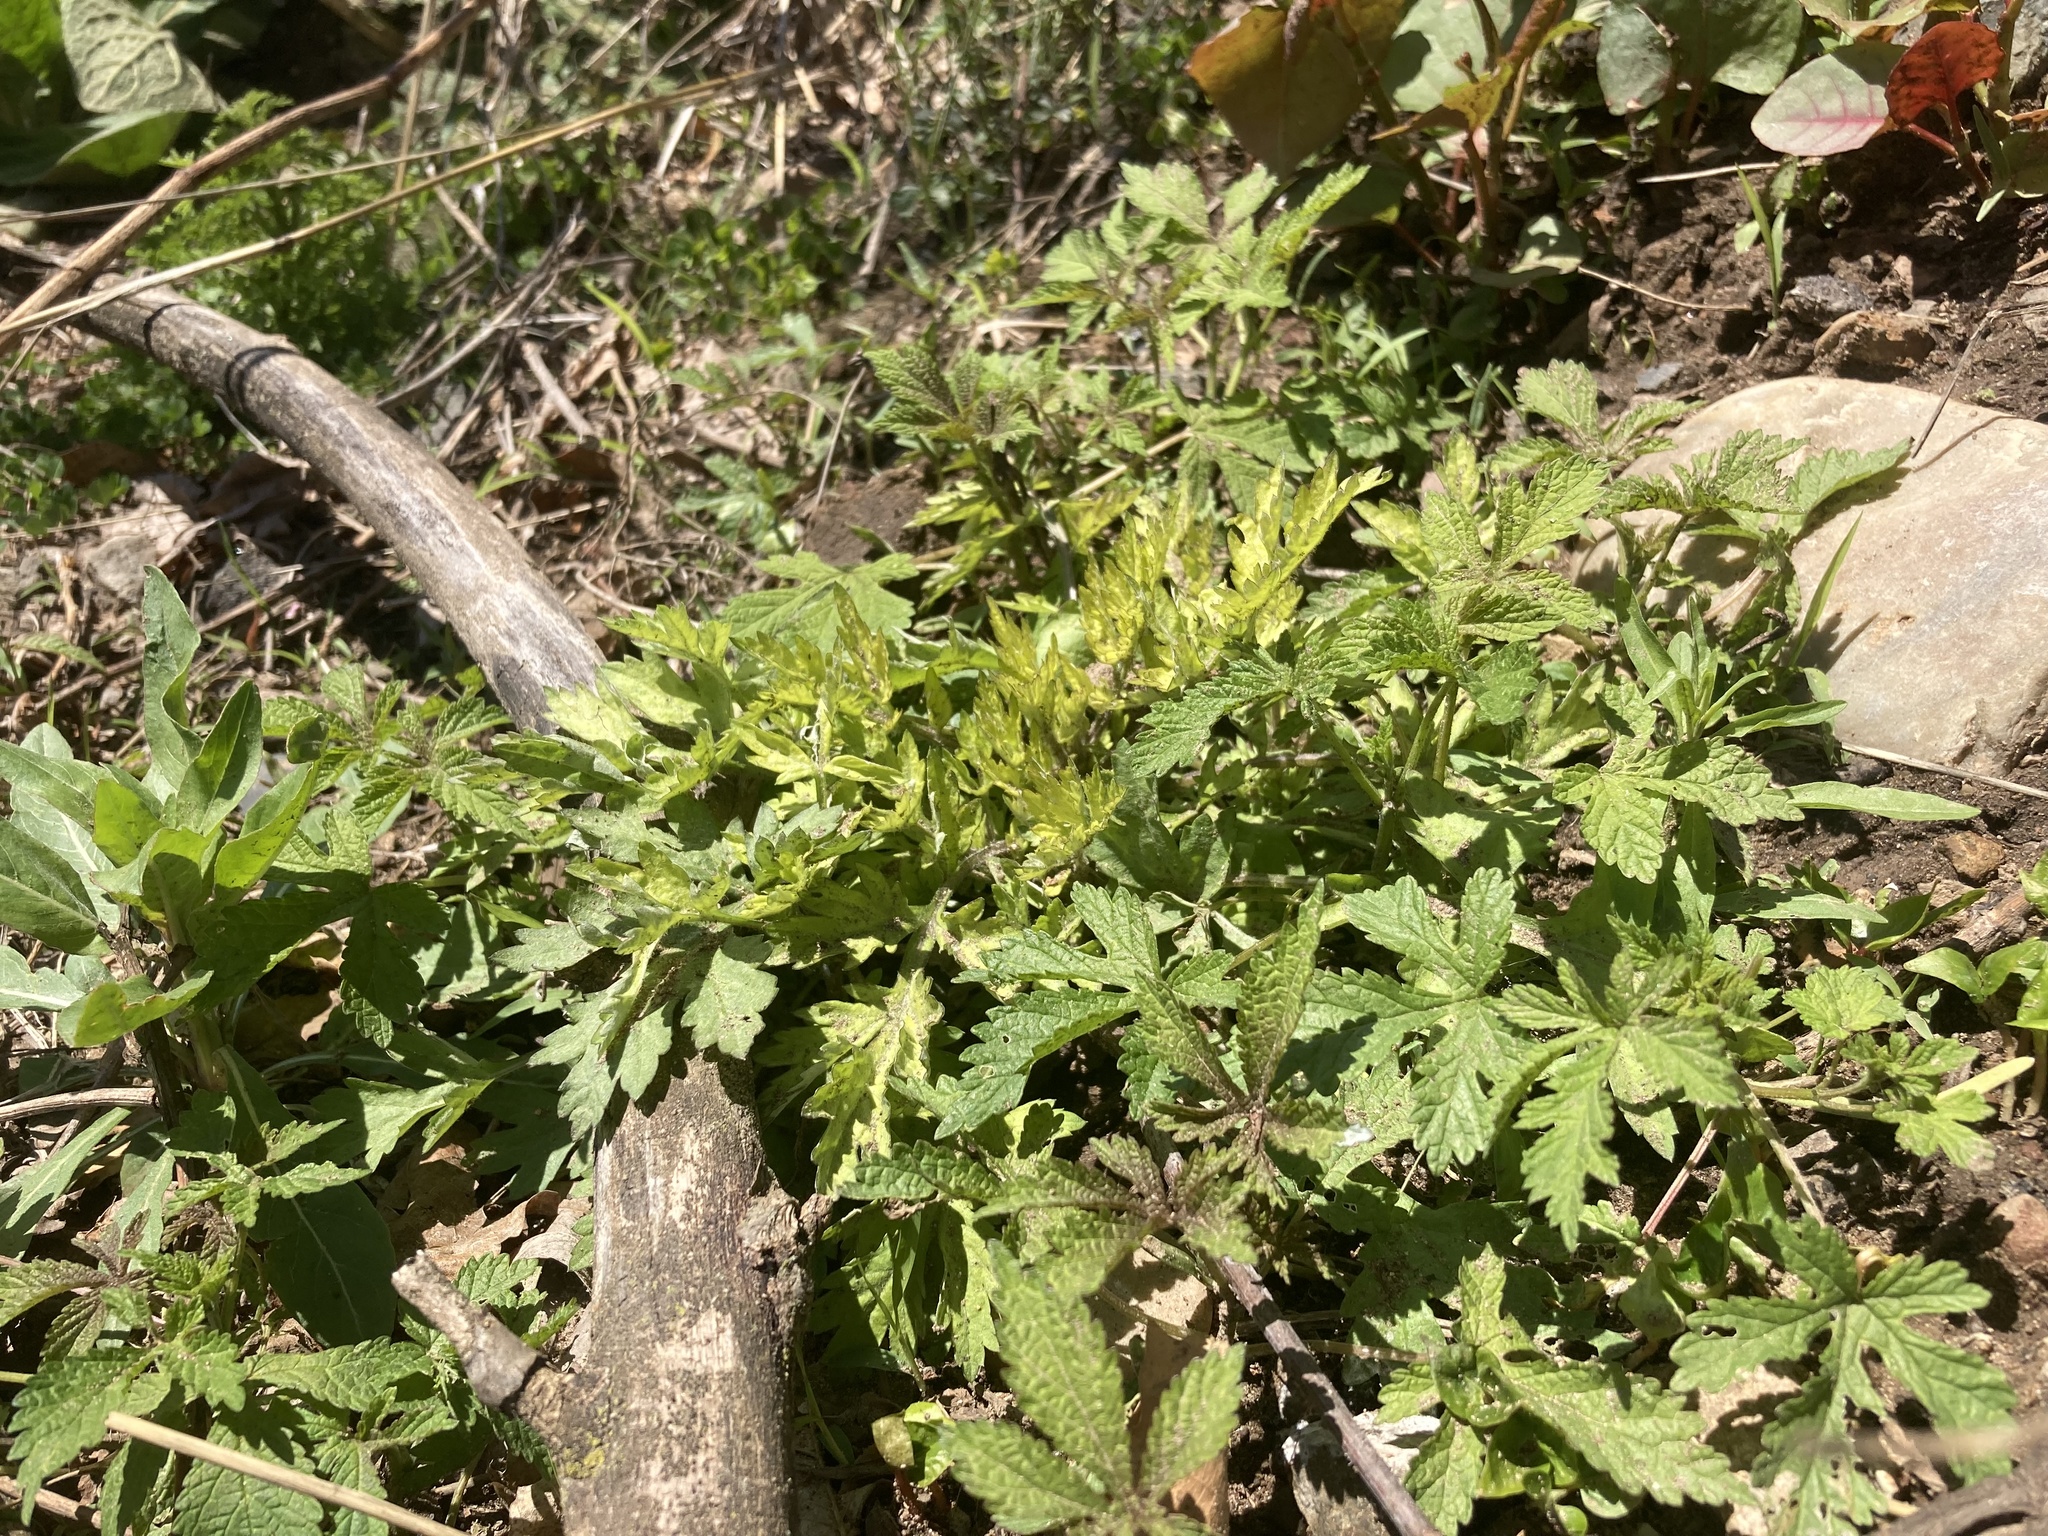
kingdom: Plantae
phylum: Tracheophyta
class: Magnoliopsida
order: Rosales
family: Cannabaceae
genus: Humulus
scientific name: Humulus scandens
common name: Japanese hop
